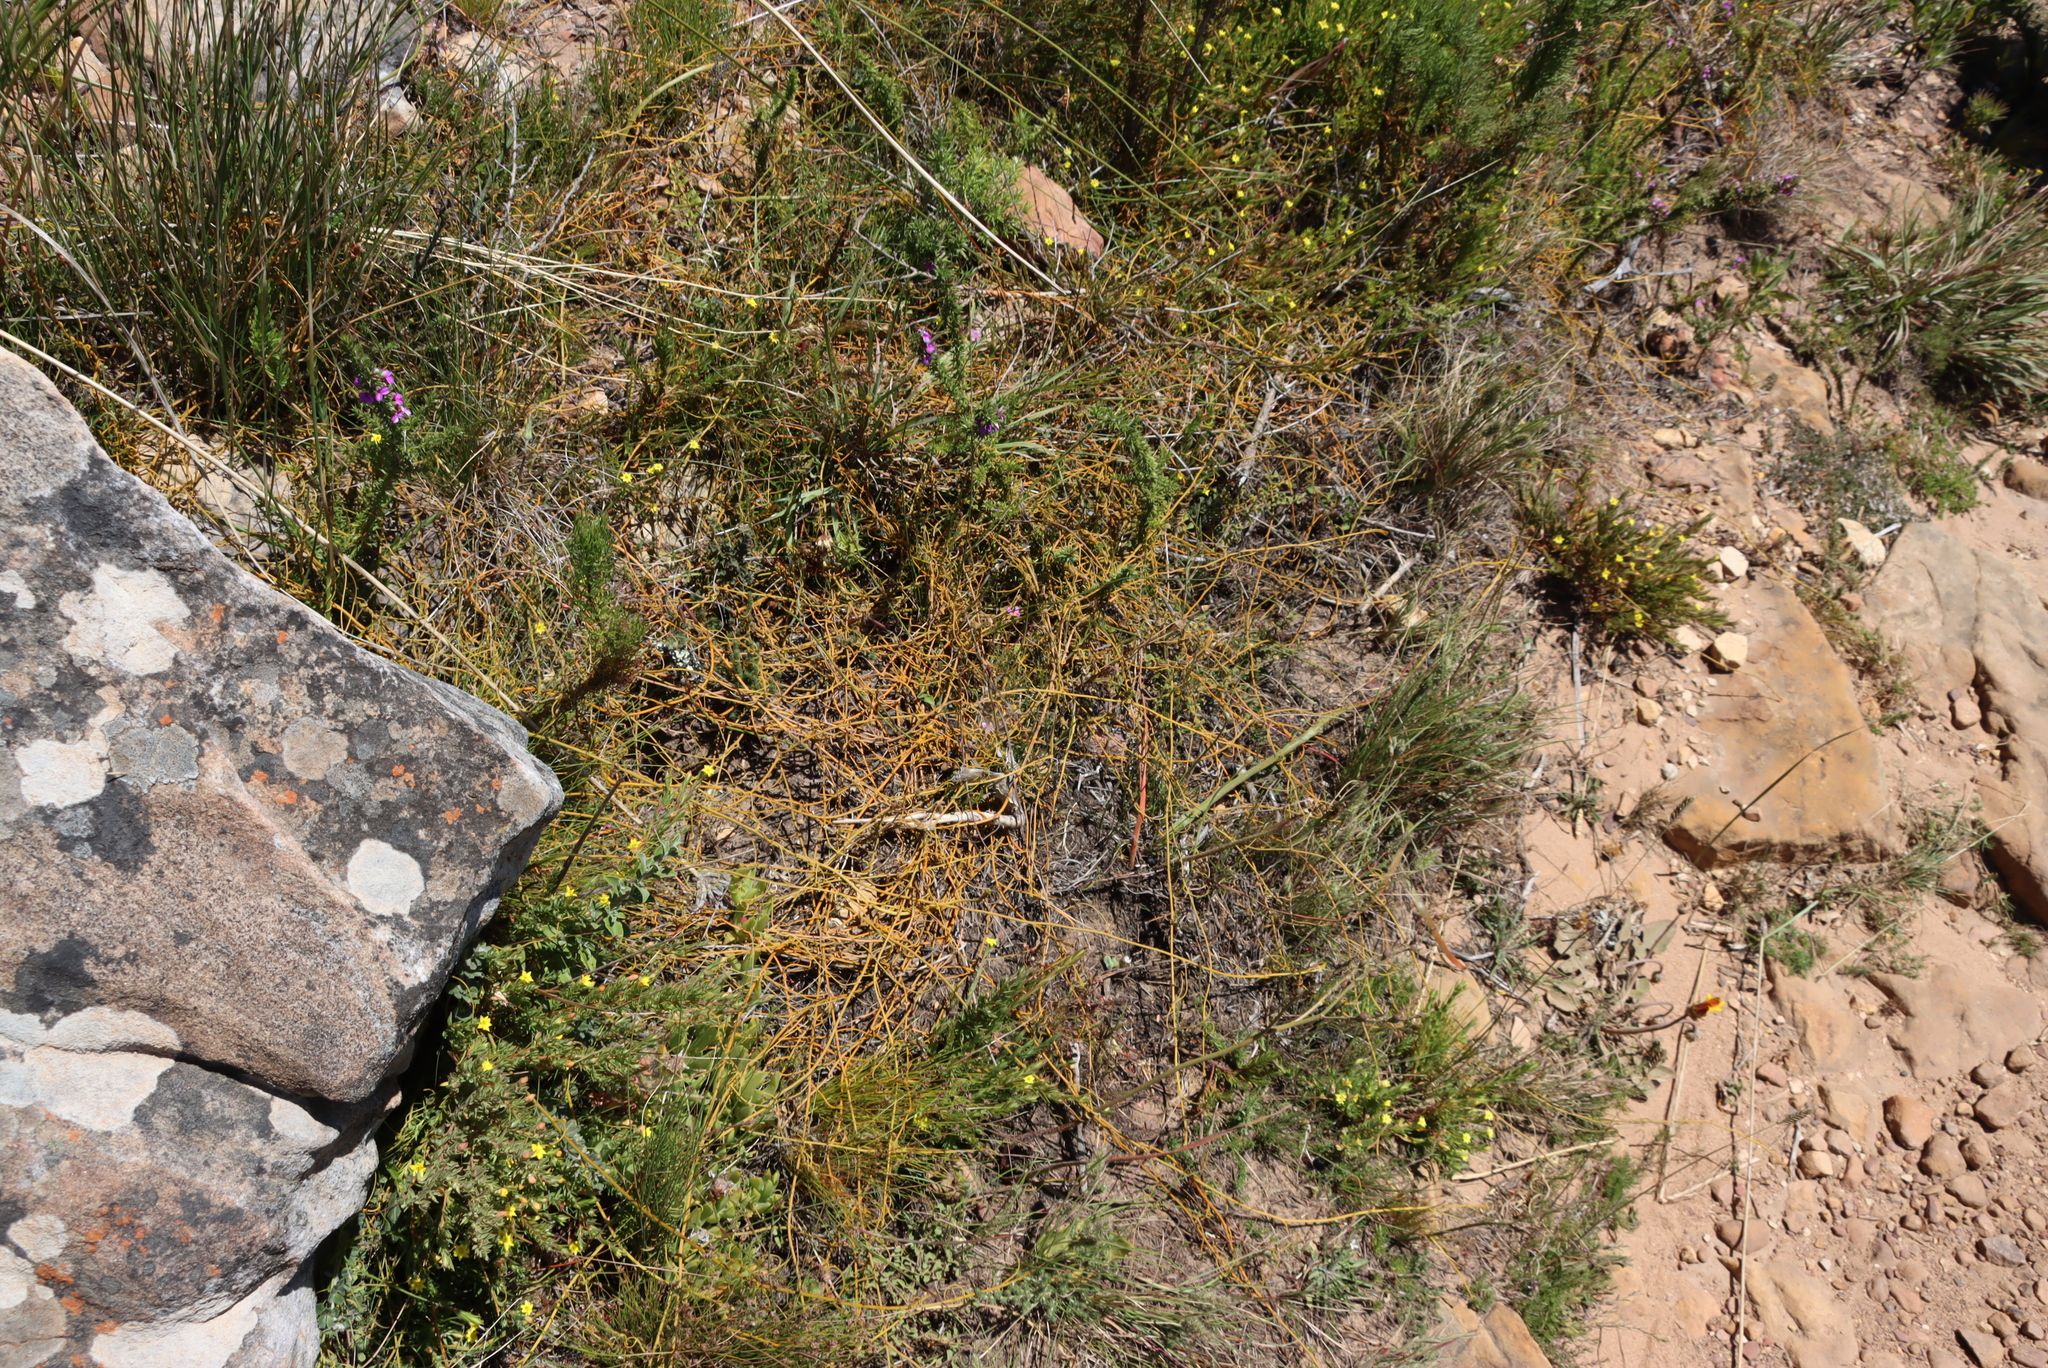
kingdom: Plantae
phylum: Tracheophyta
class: Magnoliopsida
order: Laurales
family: Lauraceae
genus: Cassytha
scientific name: Cassytha ciliolata
